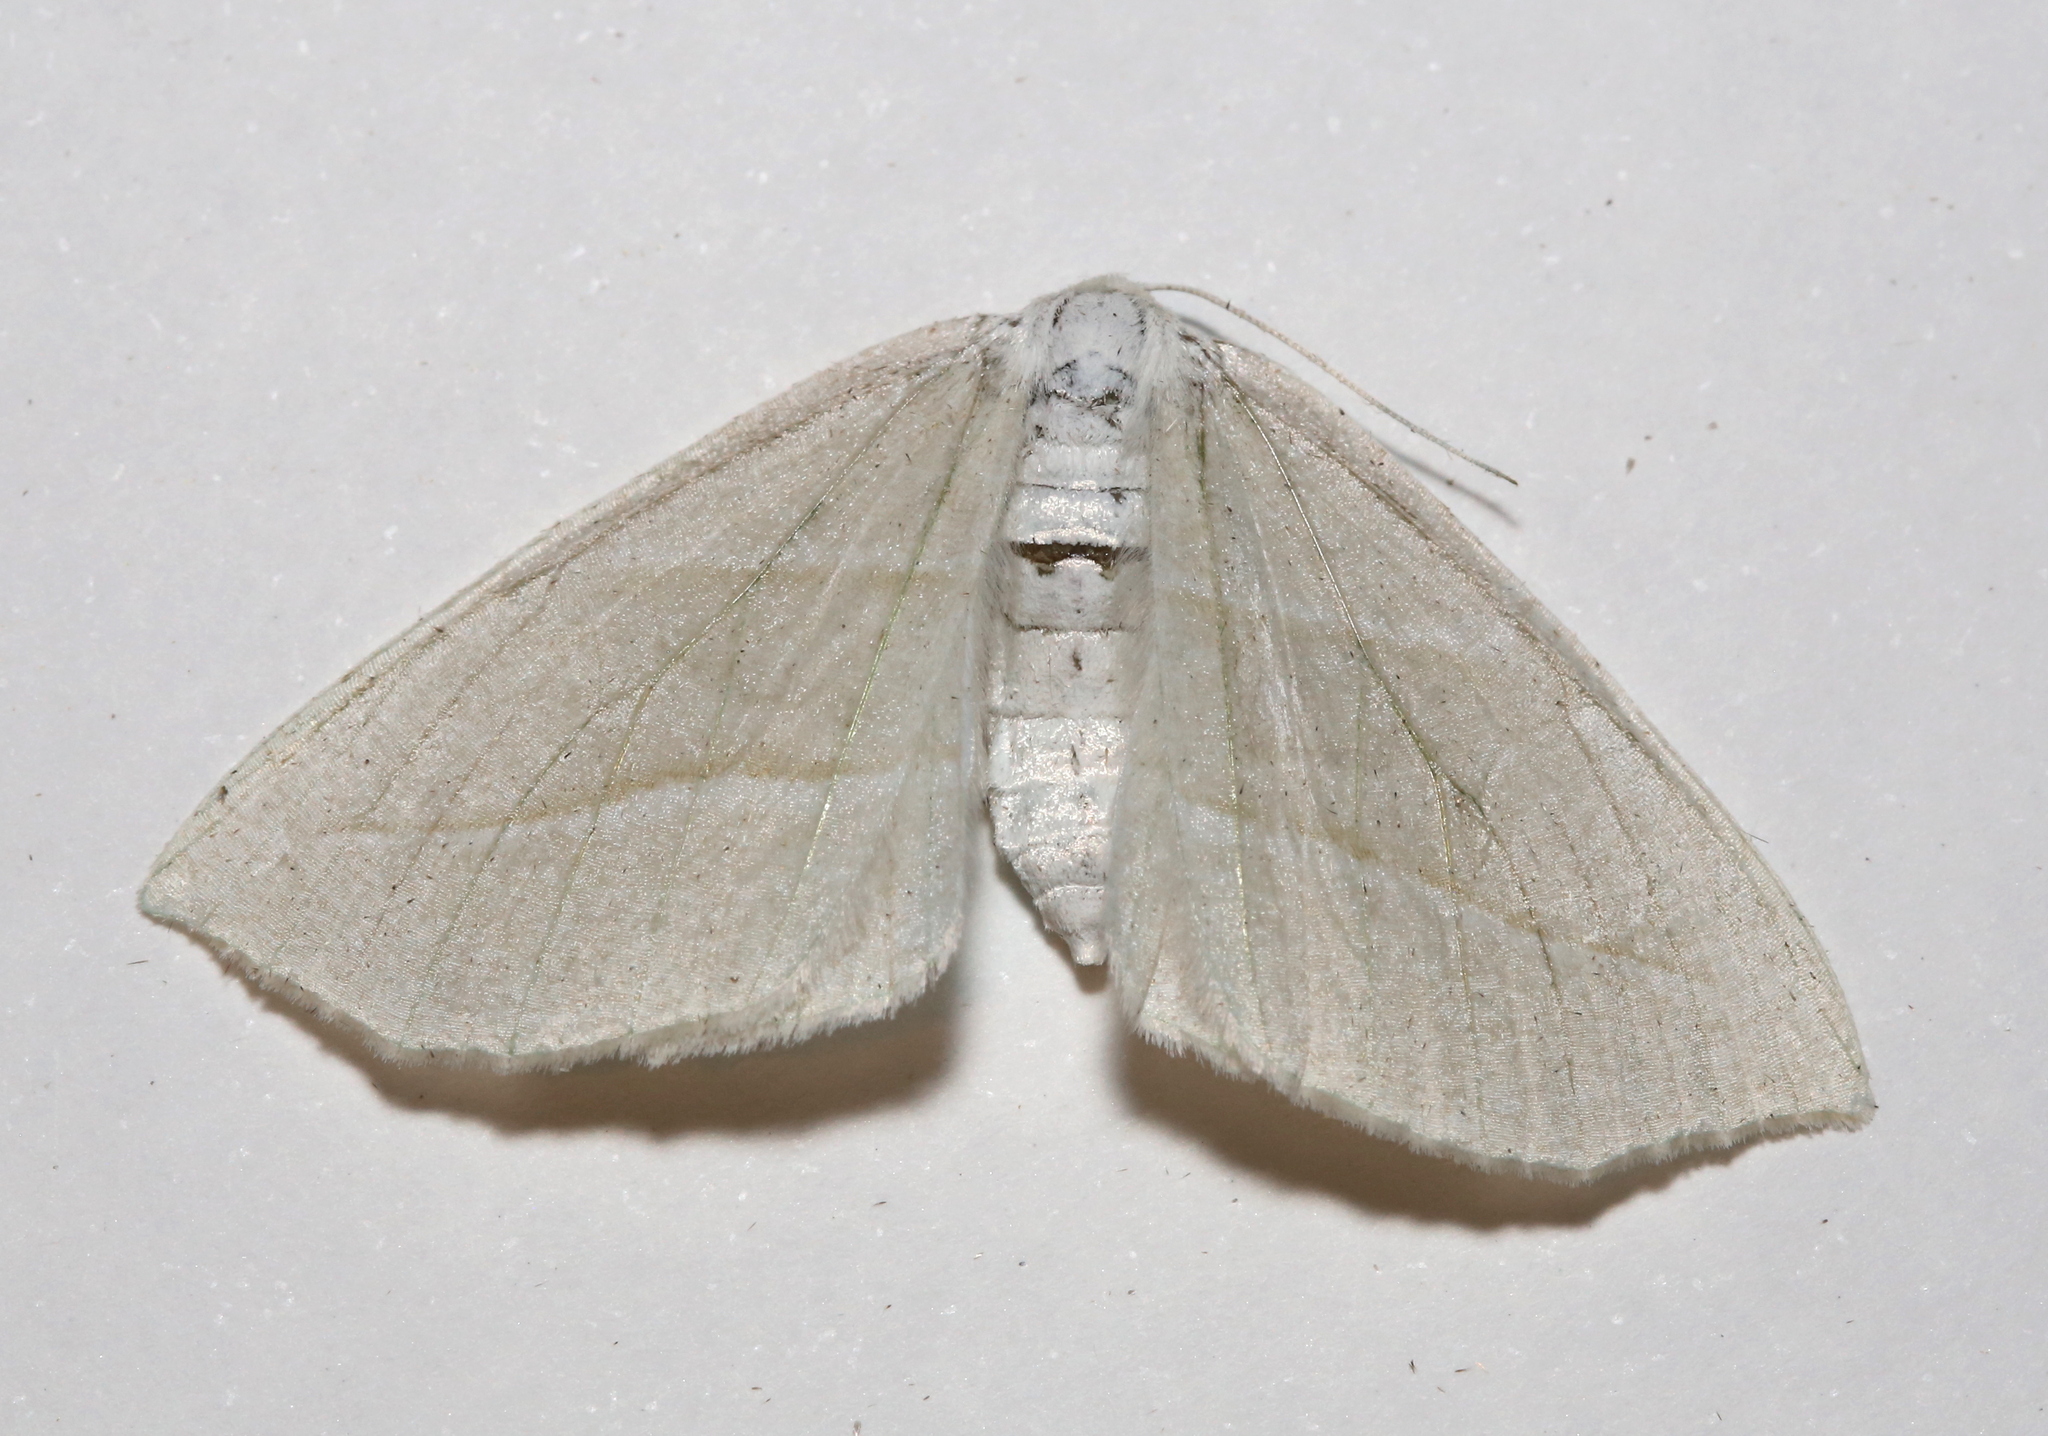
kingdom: Animalia
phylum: Arthropoda
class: Insecta
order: Lepidoptera
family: Geometridae
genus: Campaea
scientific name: Campaea perlata
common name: Fringed looper
